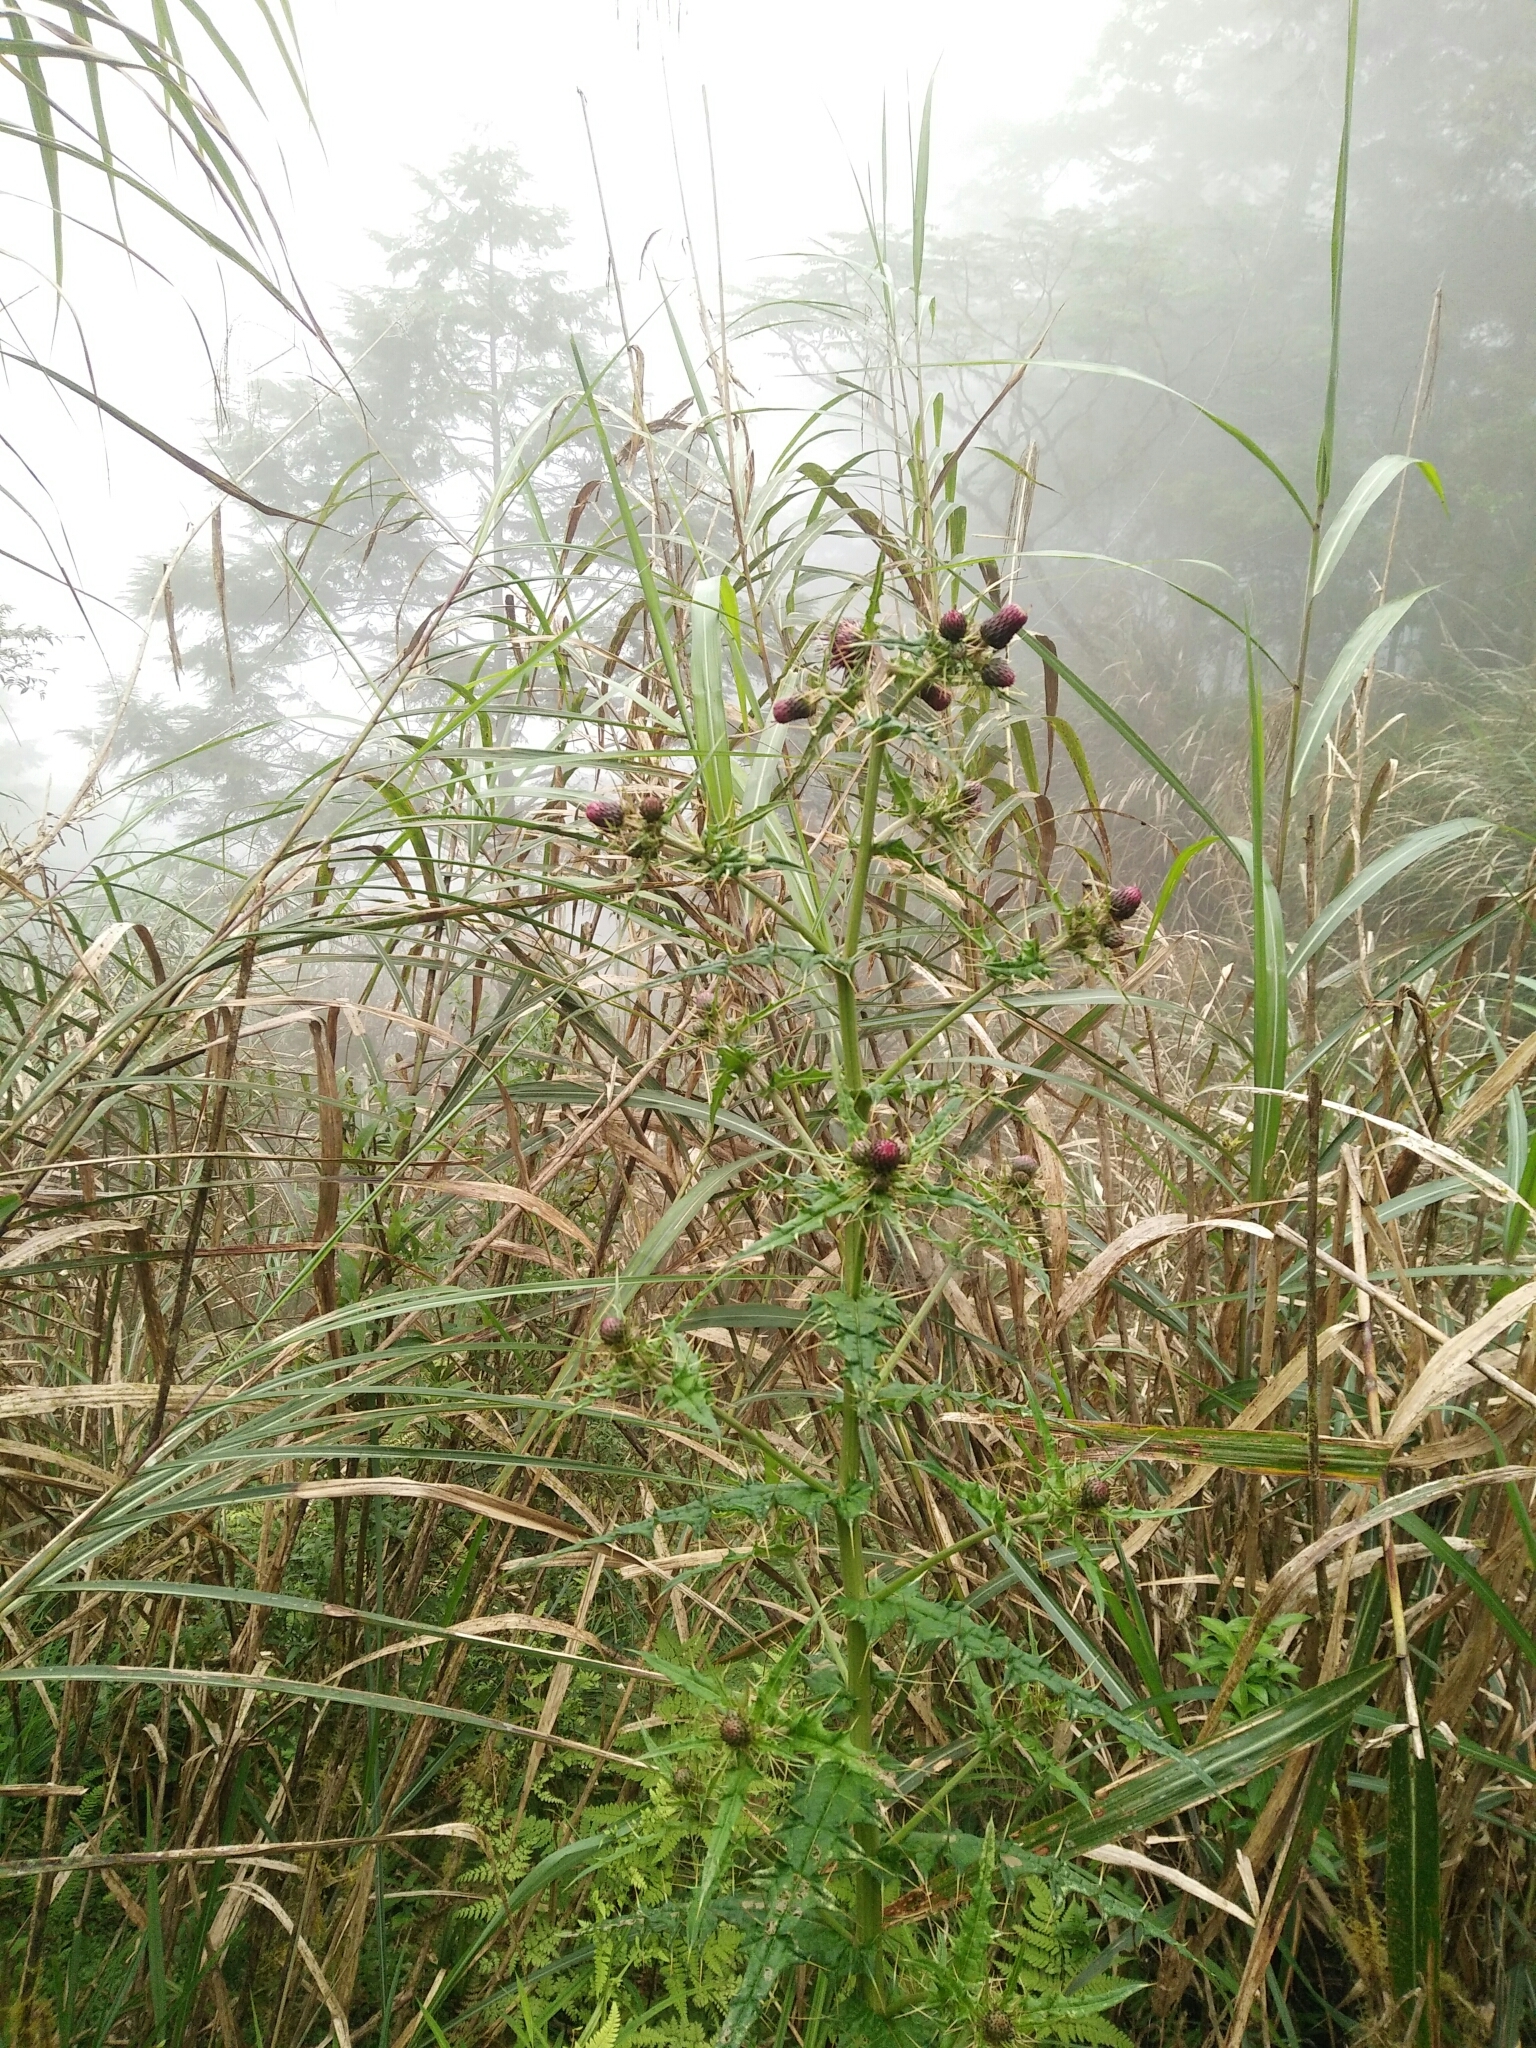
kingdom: Plantae
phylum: Tracheophyta
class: Magnoliopsida
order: Asterales
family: Asteraceae
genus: Cirsium
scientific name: Cirsium suzukii
